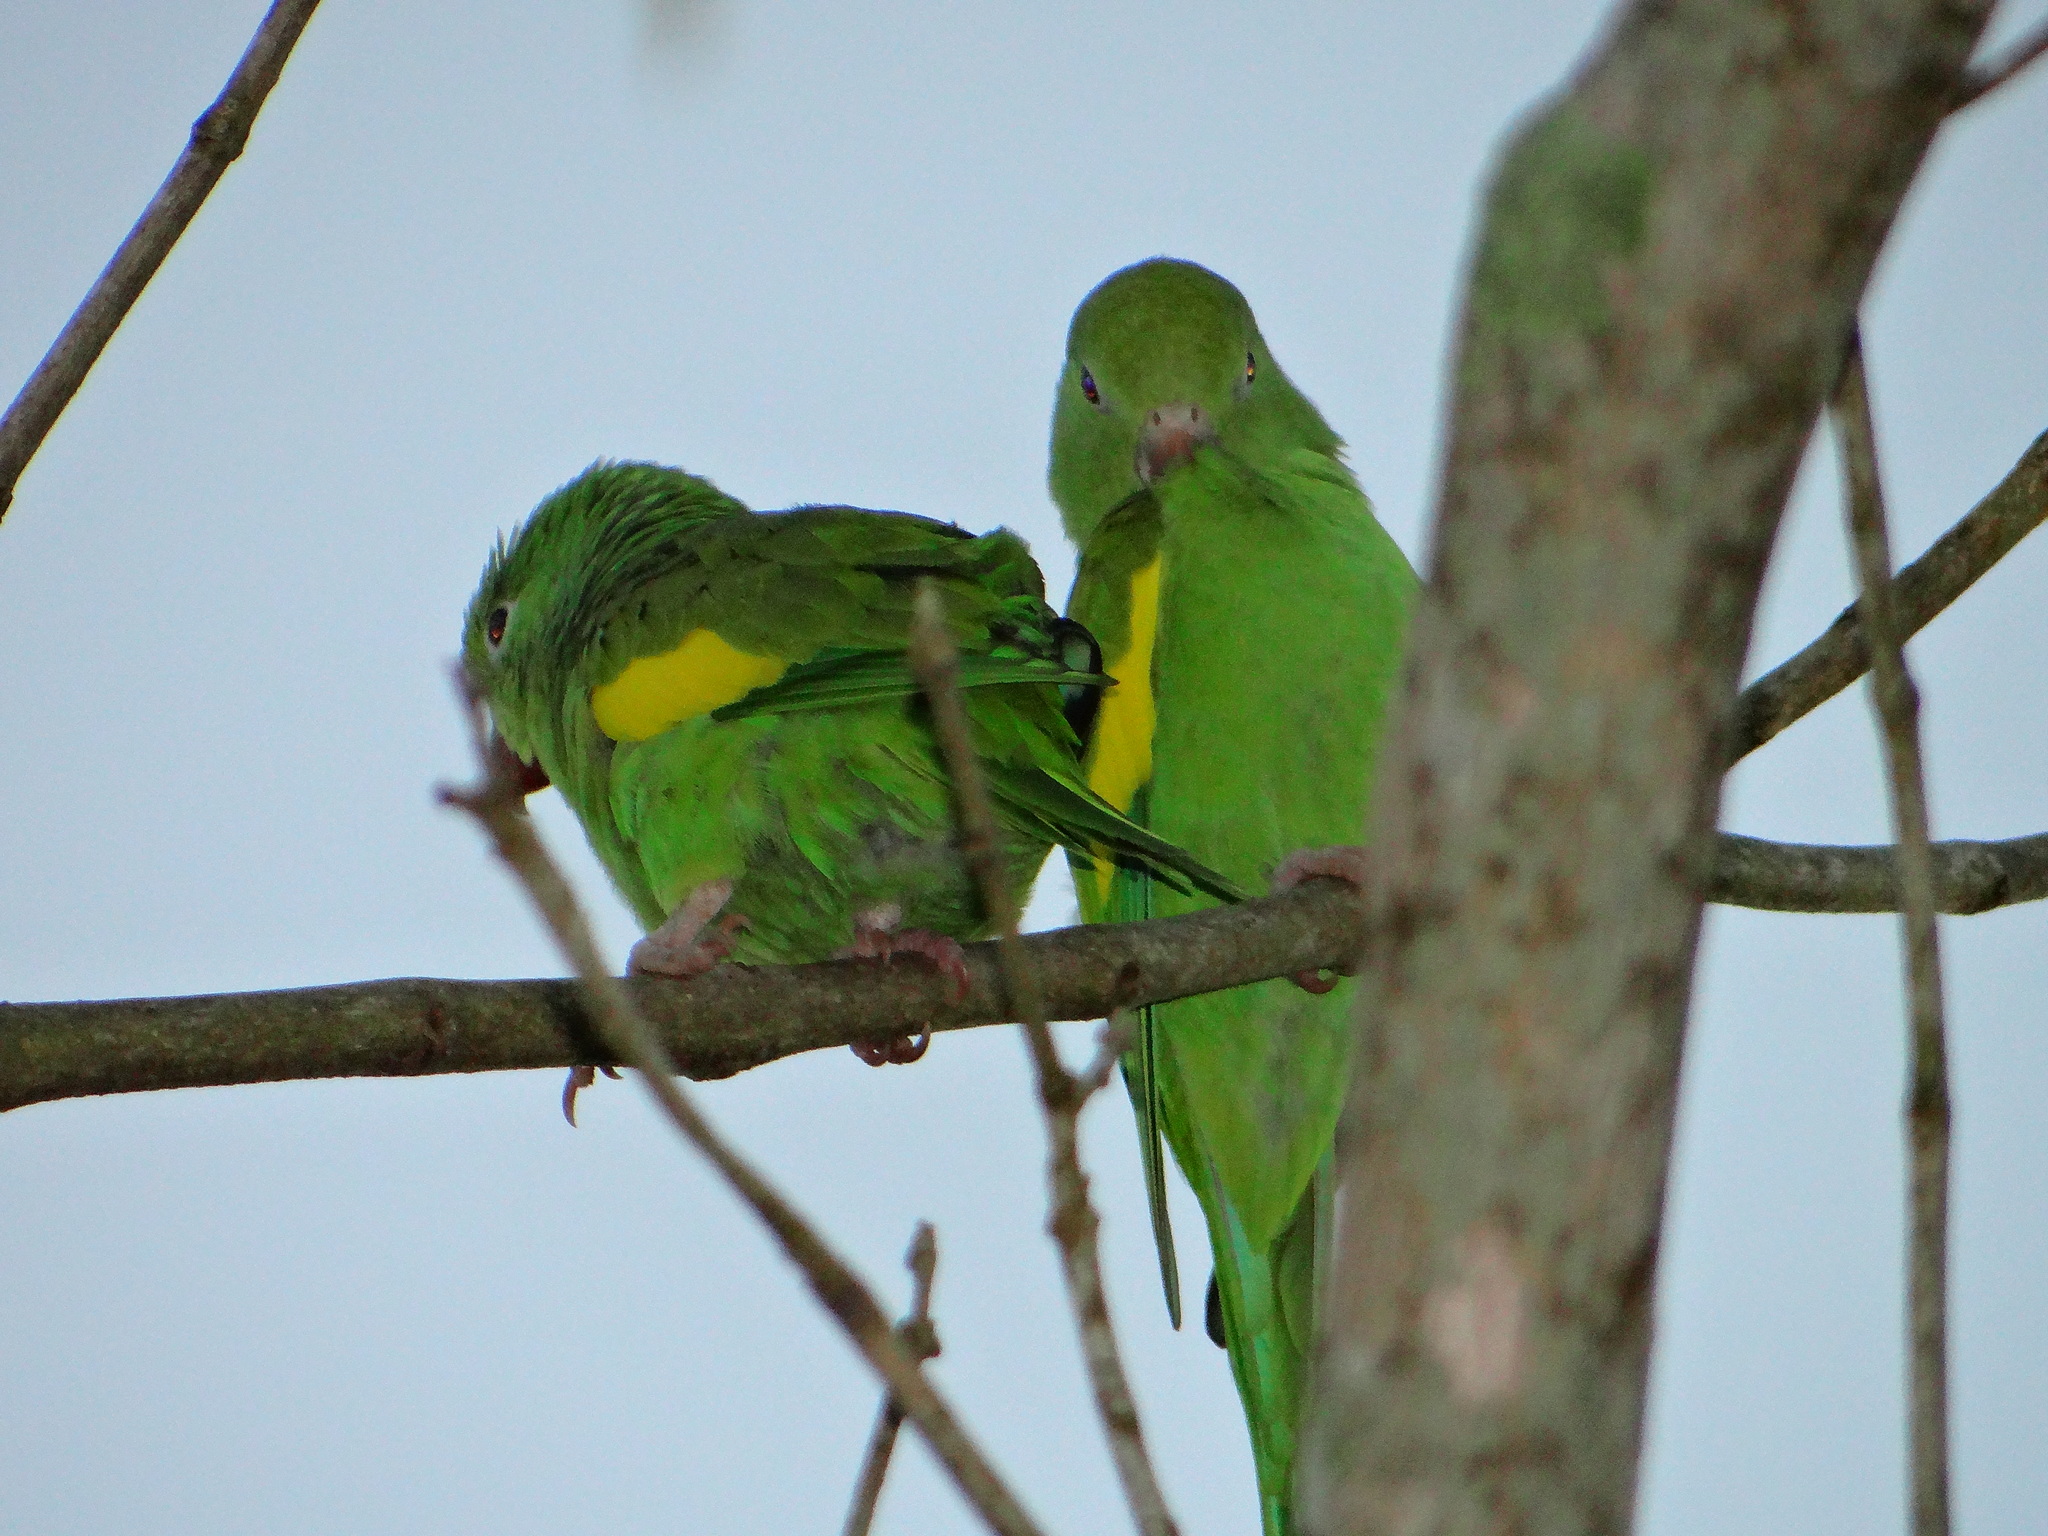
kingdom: Animalia
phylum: Chordata
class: Aves
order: Psittaciformes
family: Psittacidae
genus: Brotogeris
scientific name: Brotogeris chiriri
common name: Yellow-chevroned parakeet
